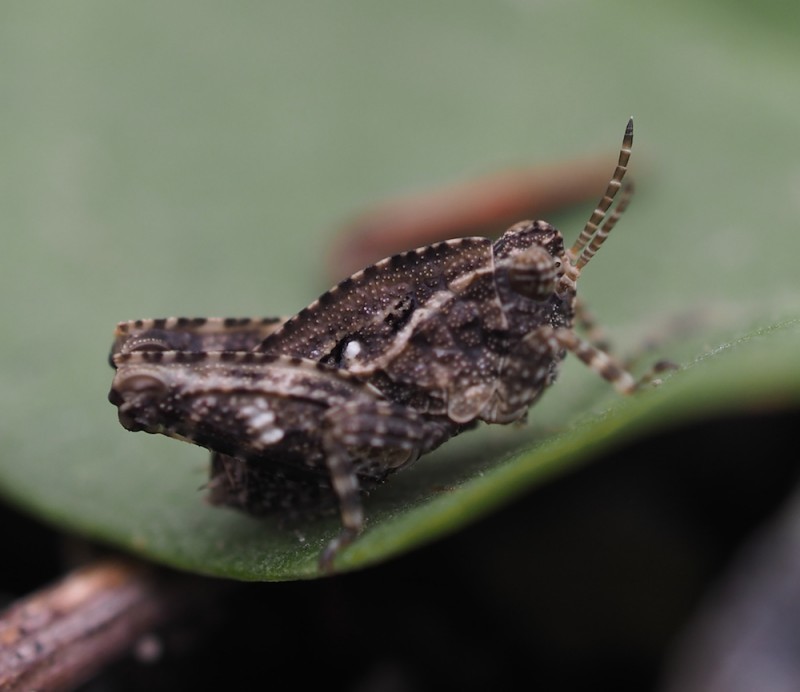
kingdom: Animalia
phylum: Arthropoda
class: Insecta
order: Orthoptera
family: Tetrigidae
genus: Tetrix
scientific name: Tetrix tenuicornis
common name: Long-horned groundhopper
